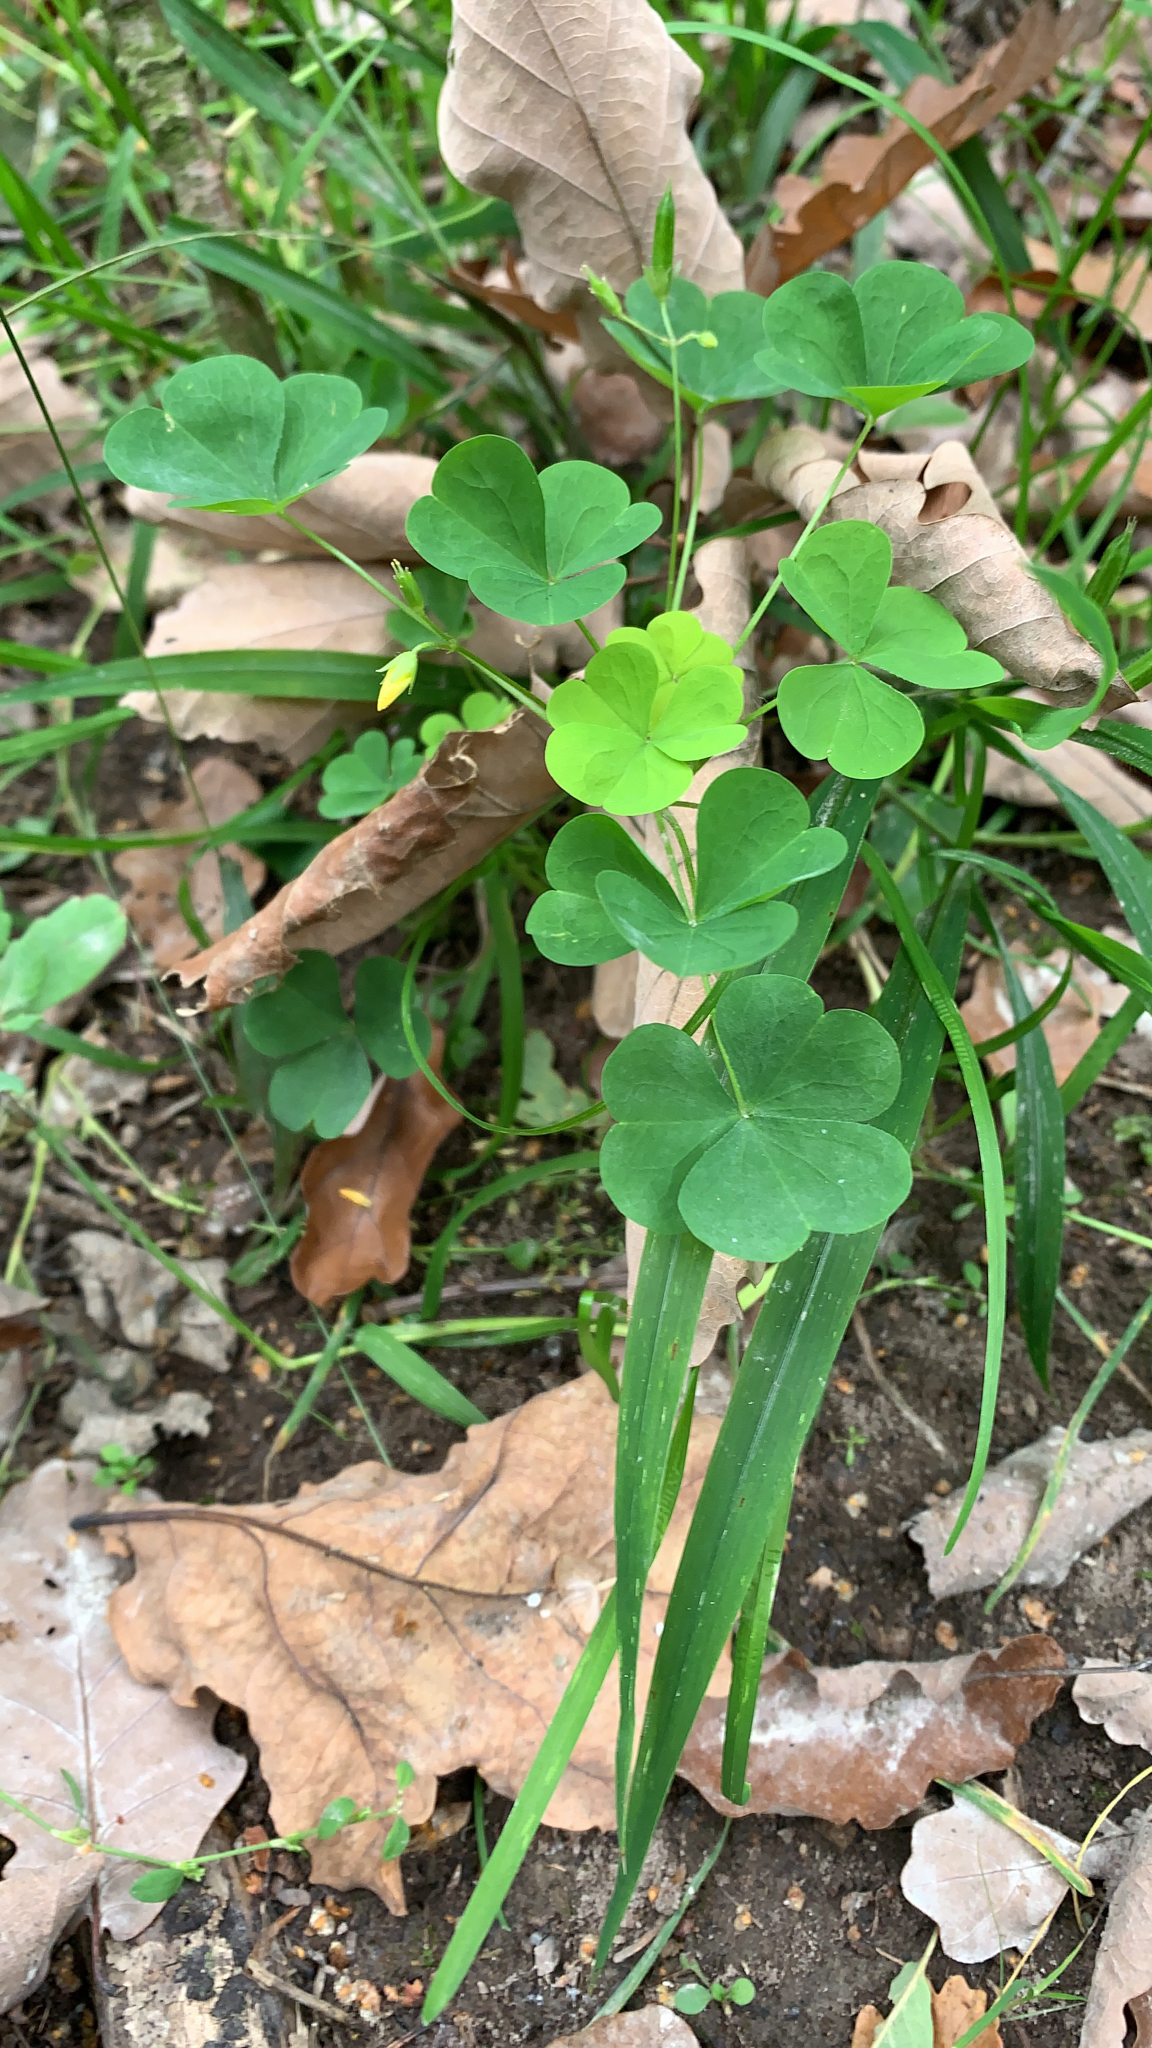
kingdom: Plantae
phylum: Tracheophyta
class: Magnoliopsida
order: Oxalidales
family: Oxalidaceae
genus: Oxalis
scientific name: Oxalis stricta
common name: Upright yellow-sorrel
